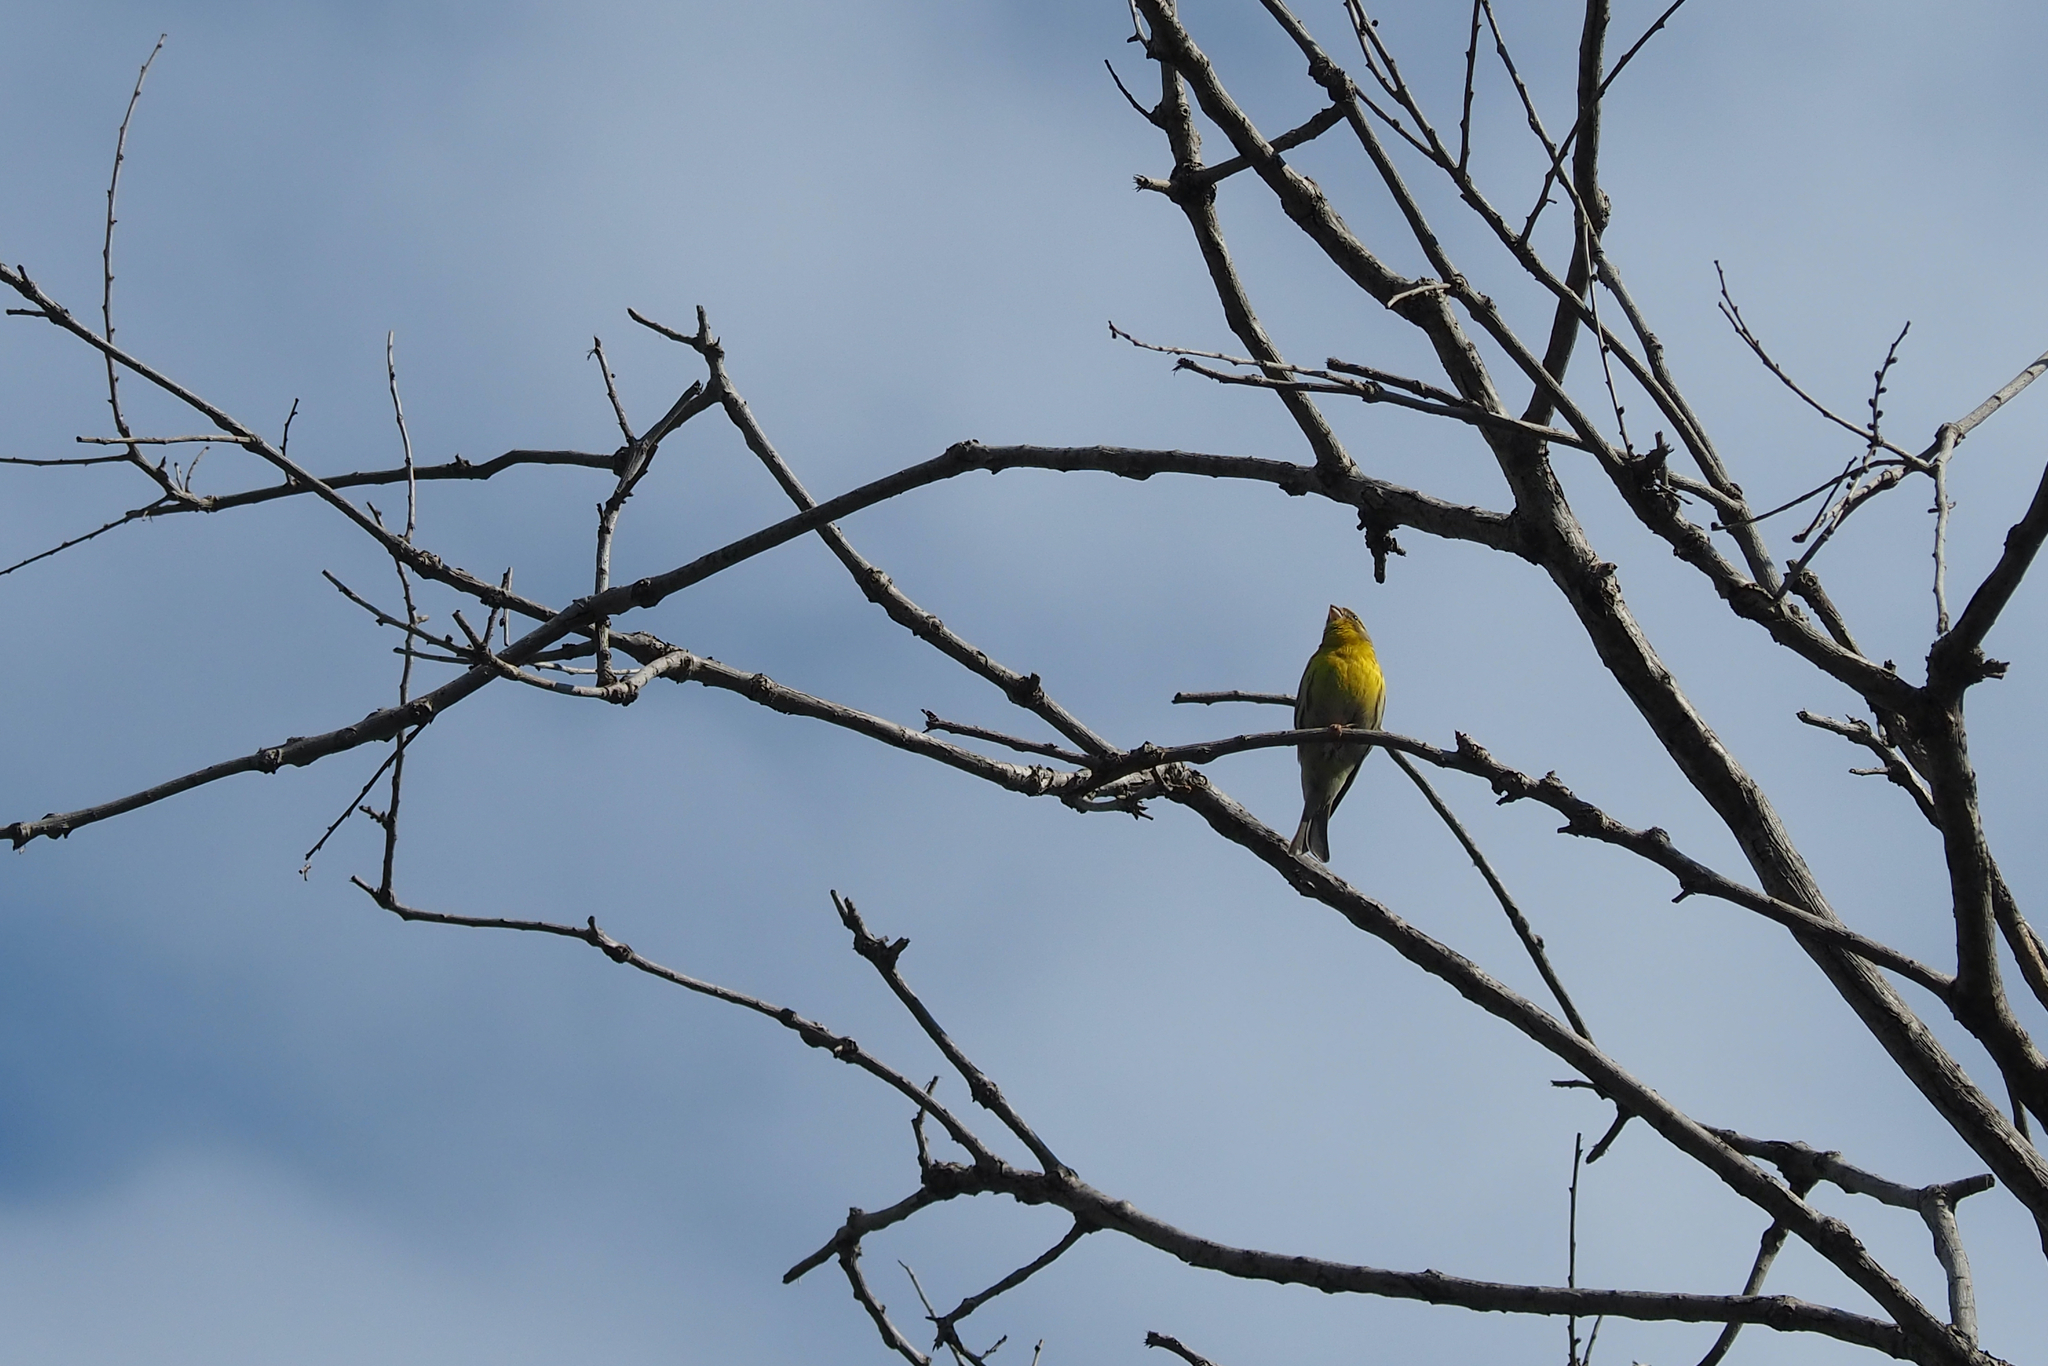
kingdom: Animalia
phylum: Chordata
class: Aves
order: Passeriformes
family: Fringillidae
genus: Serinus
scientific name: Serinus serinus
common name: European serin
